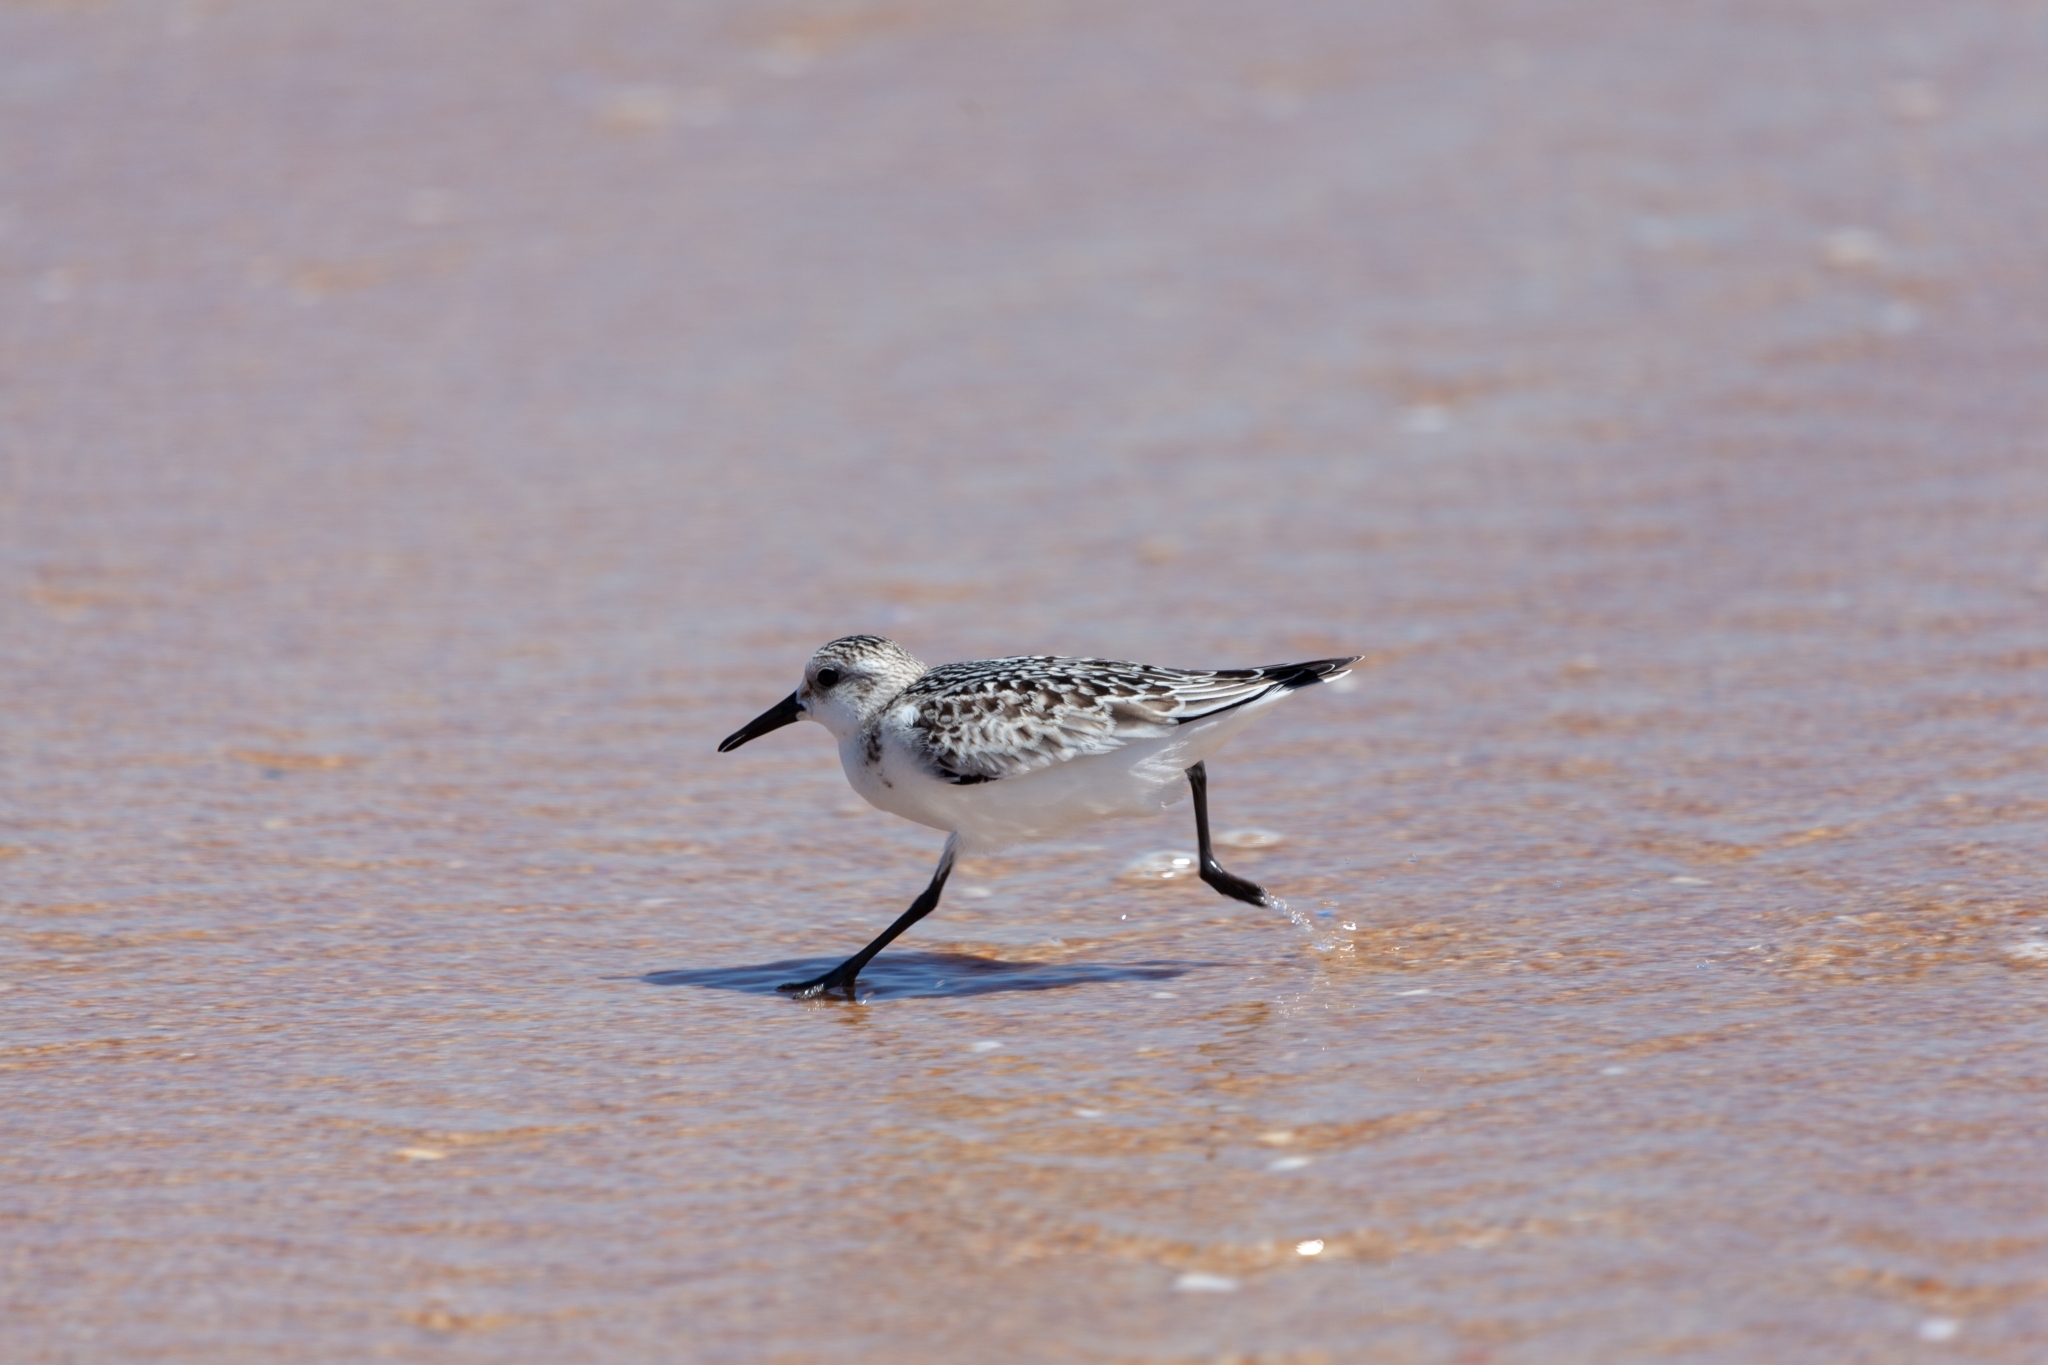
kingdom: Animalia
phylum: Chordata
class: Aves
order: Charadriiformes
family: Scolopacidae
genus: Calidris
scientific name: Calidris alba
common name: Sanderling
